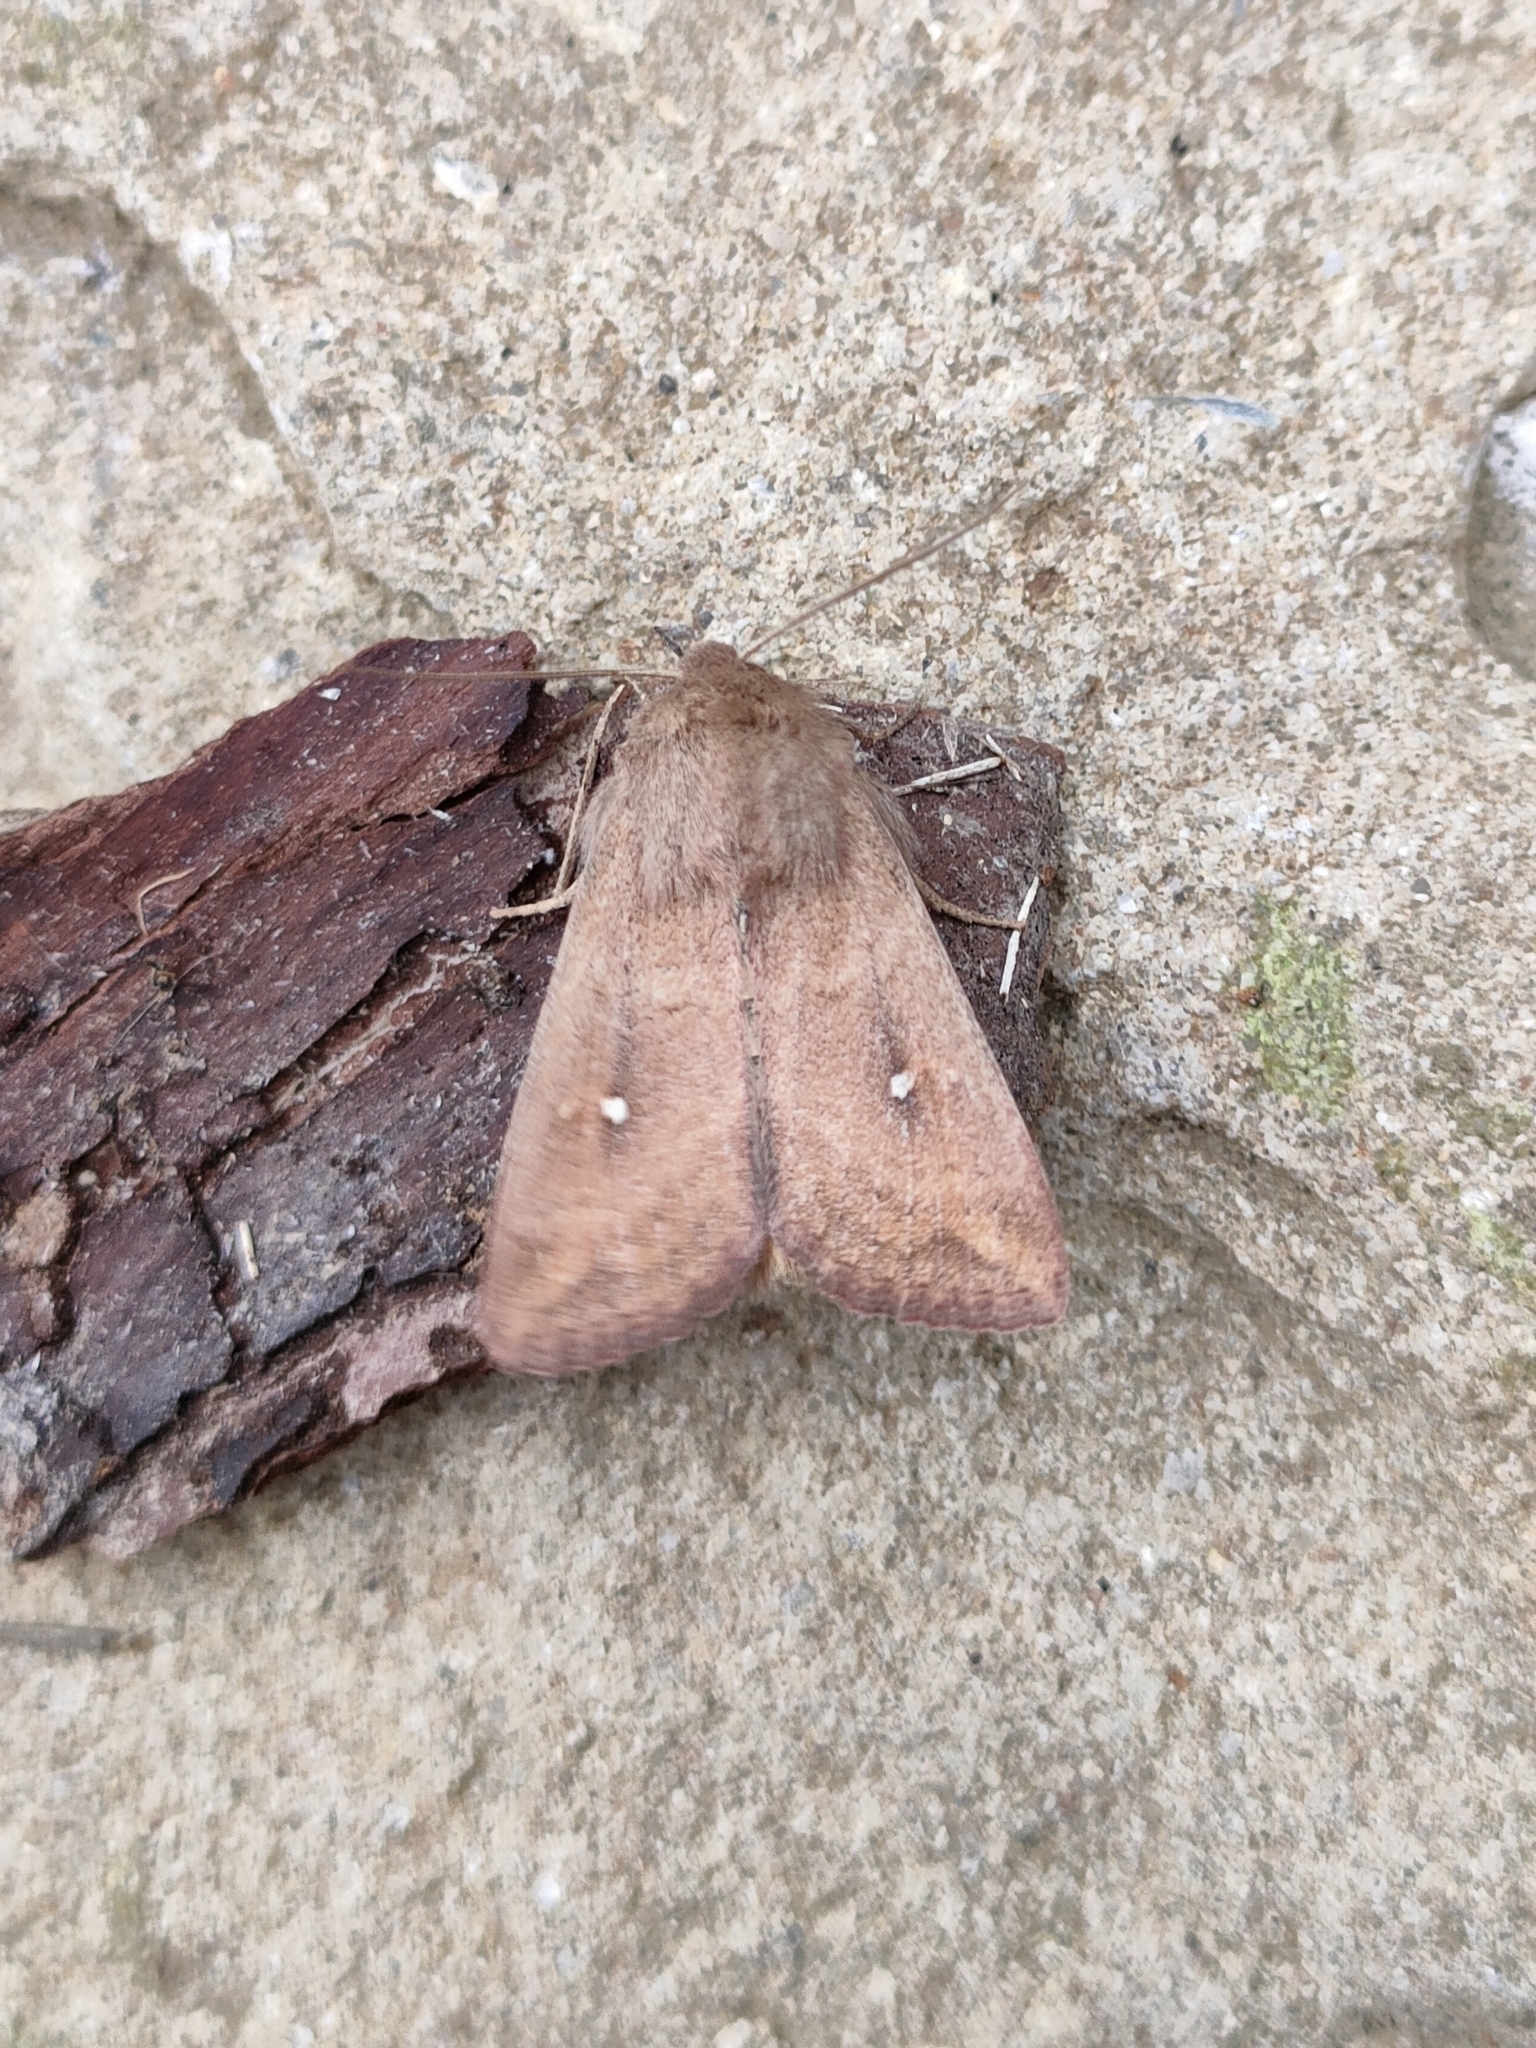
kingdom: Animalia
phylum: Arthropoda
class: Insecta
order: Lepidoptera
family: Noctuidae
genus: Mythimna
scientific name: Mythimna albipuncta
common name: White-point
